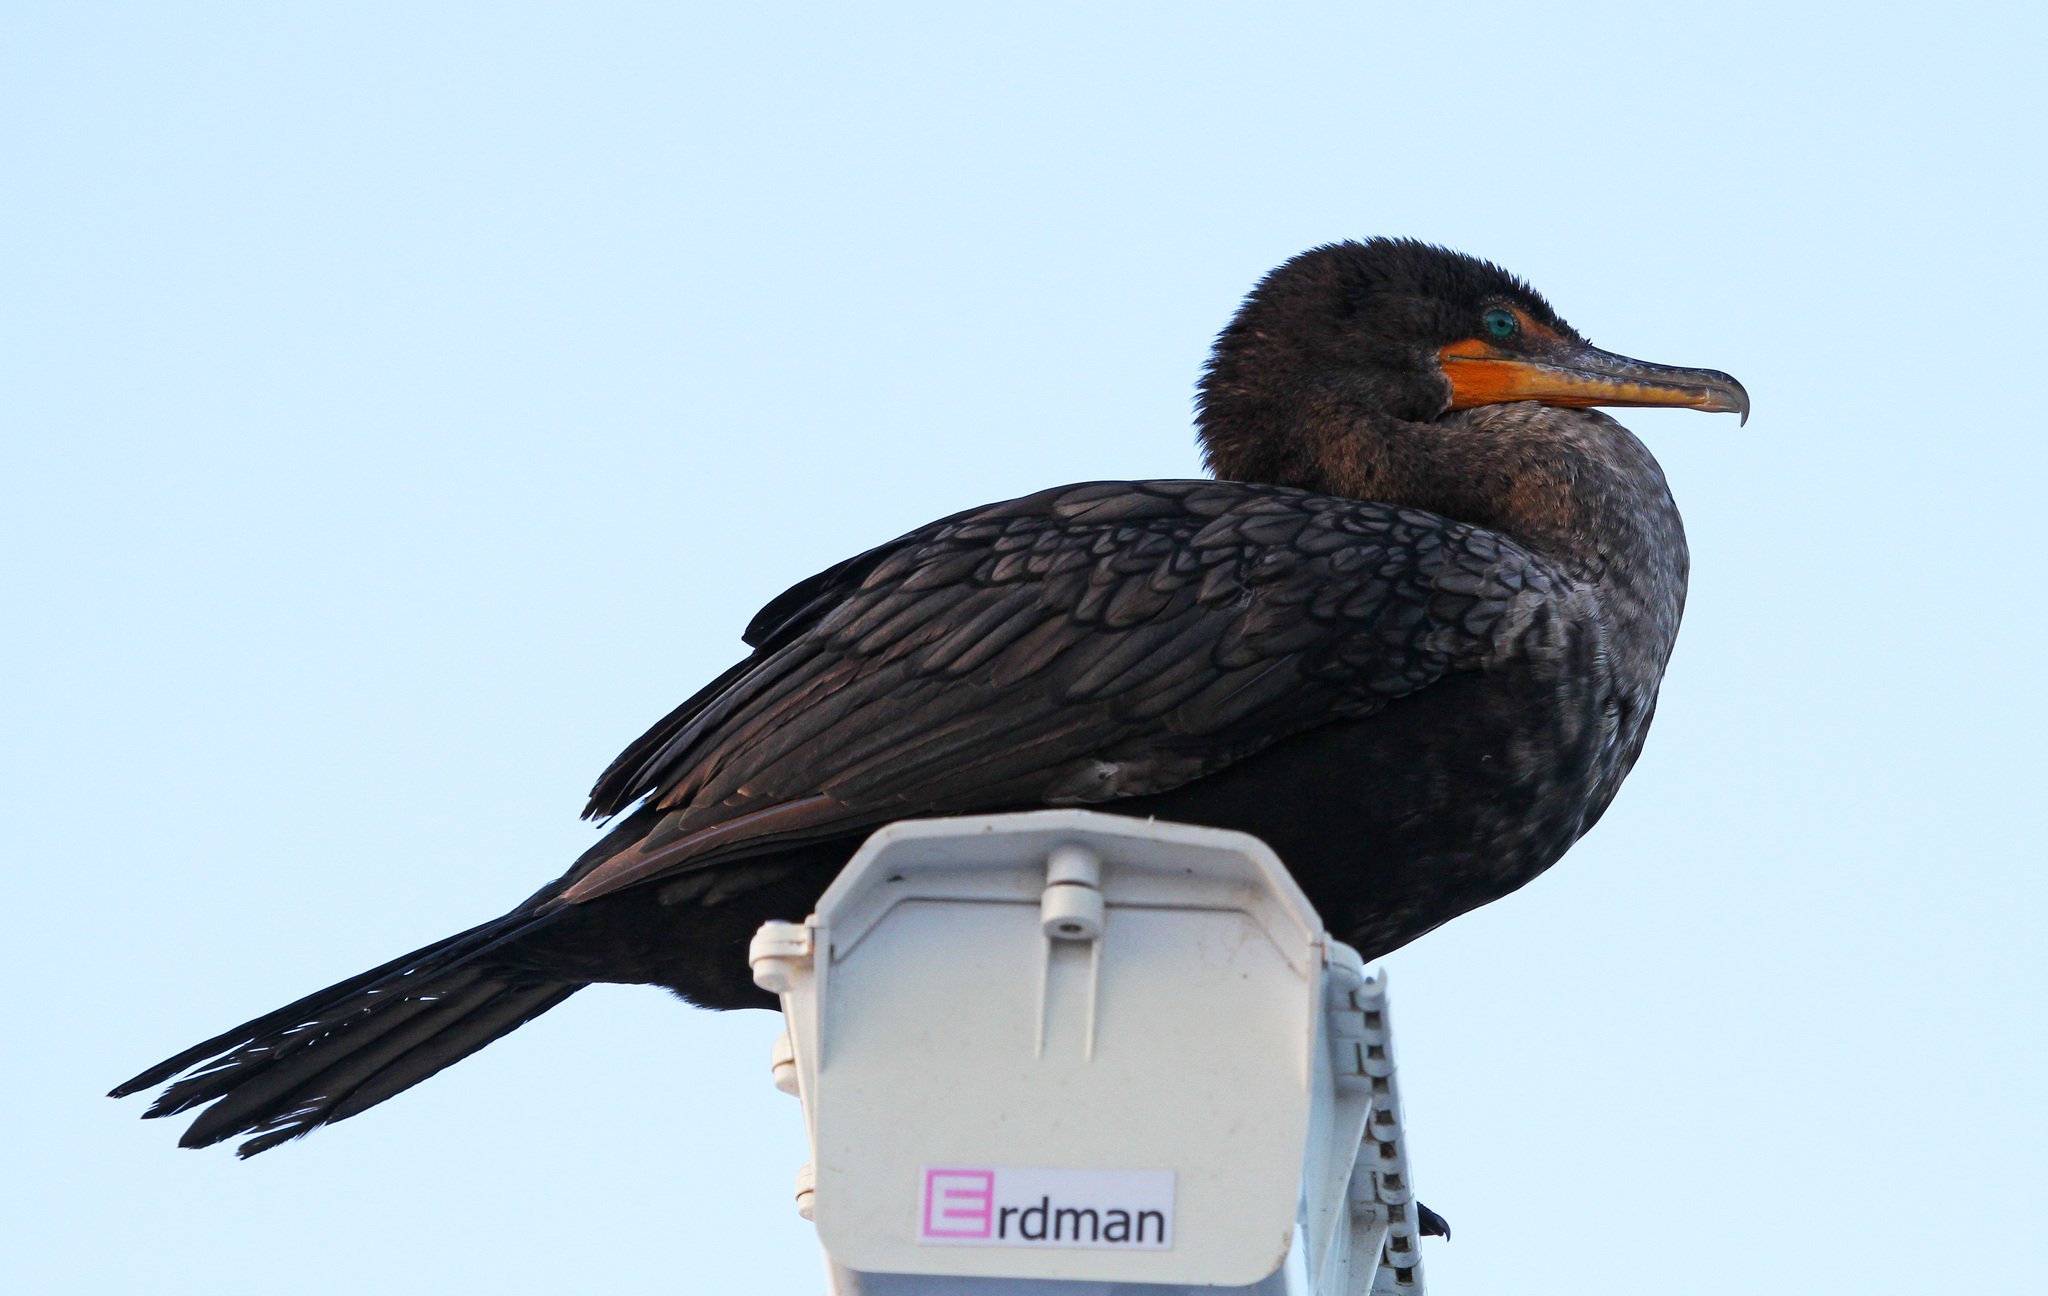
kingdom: Animalia
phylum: Chordata
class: Aves
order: Suliformes
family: Phalacrocoracidae
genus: Phalacrocorax
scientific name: Phalacrocorax auritus
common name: Double-crested cormorant
